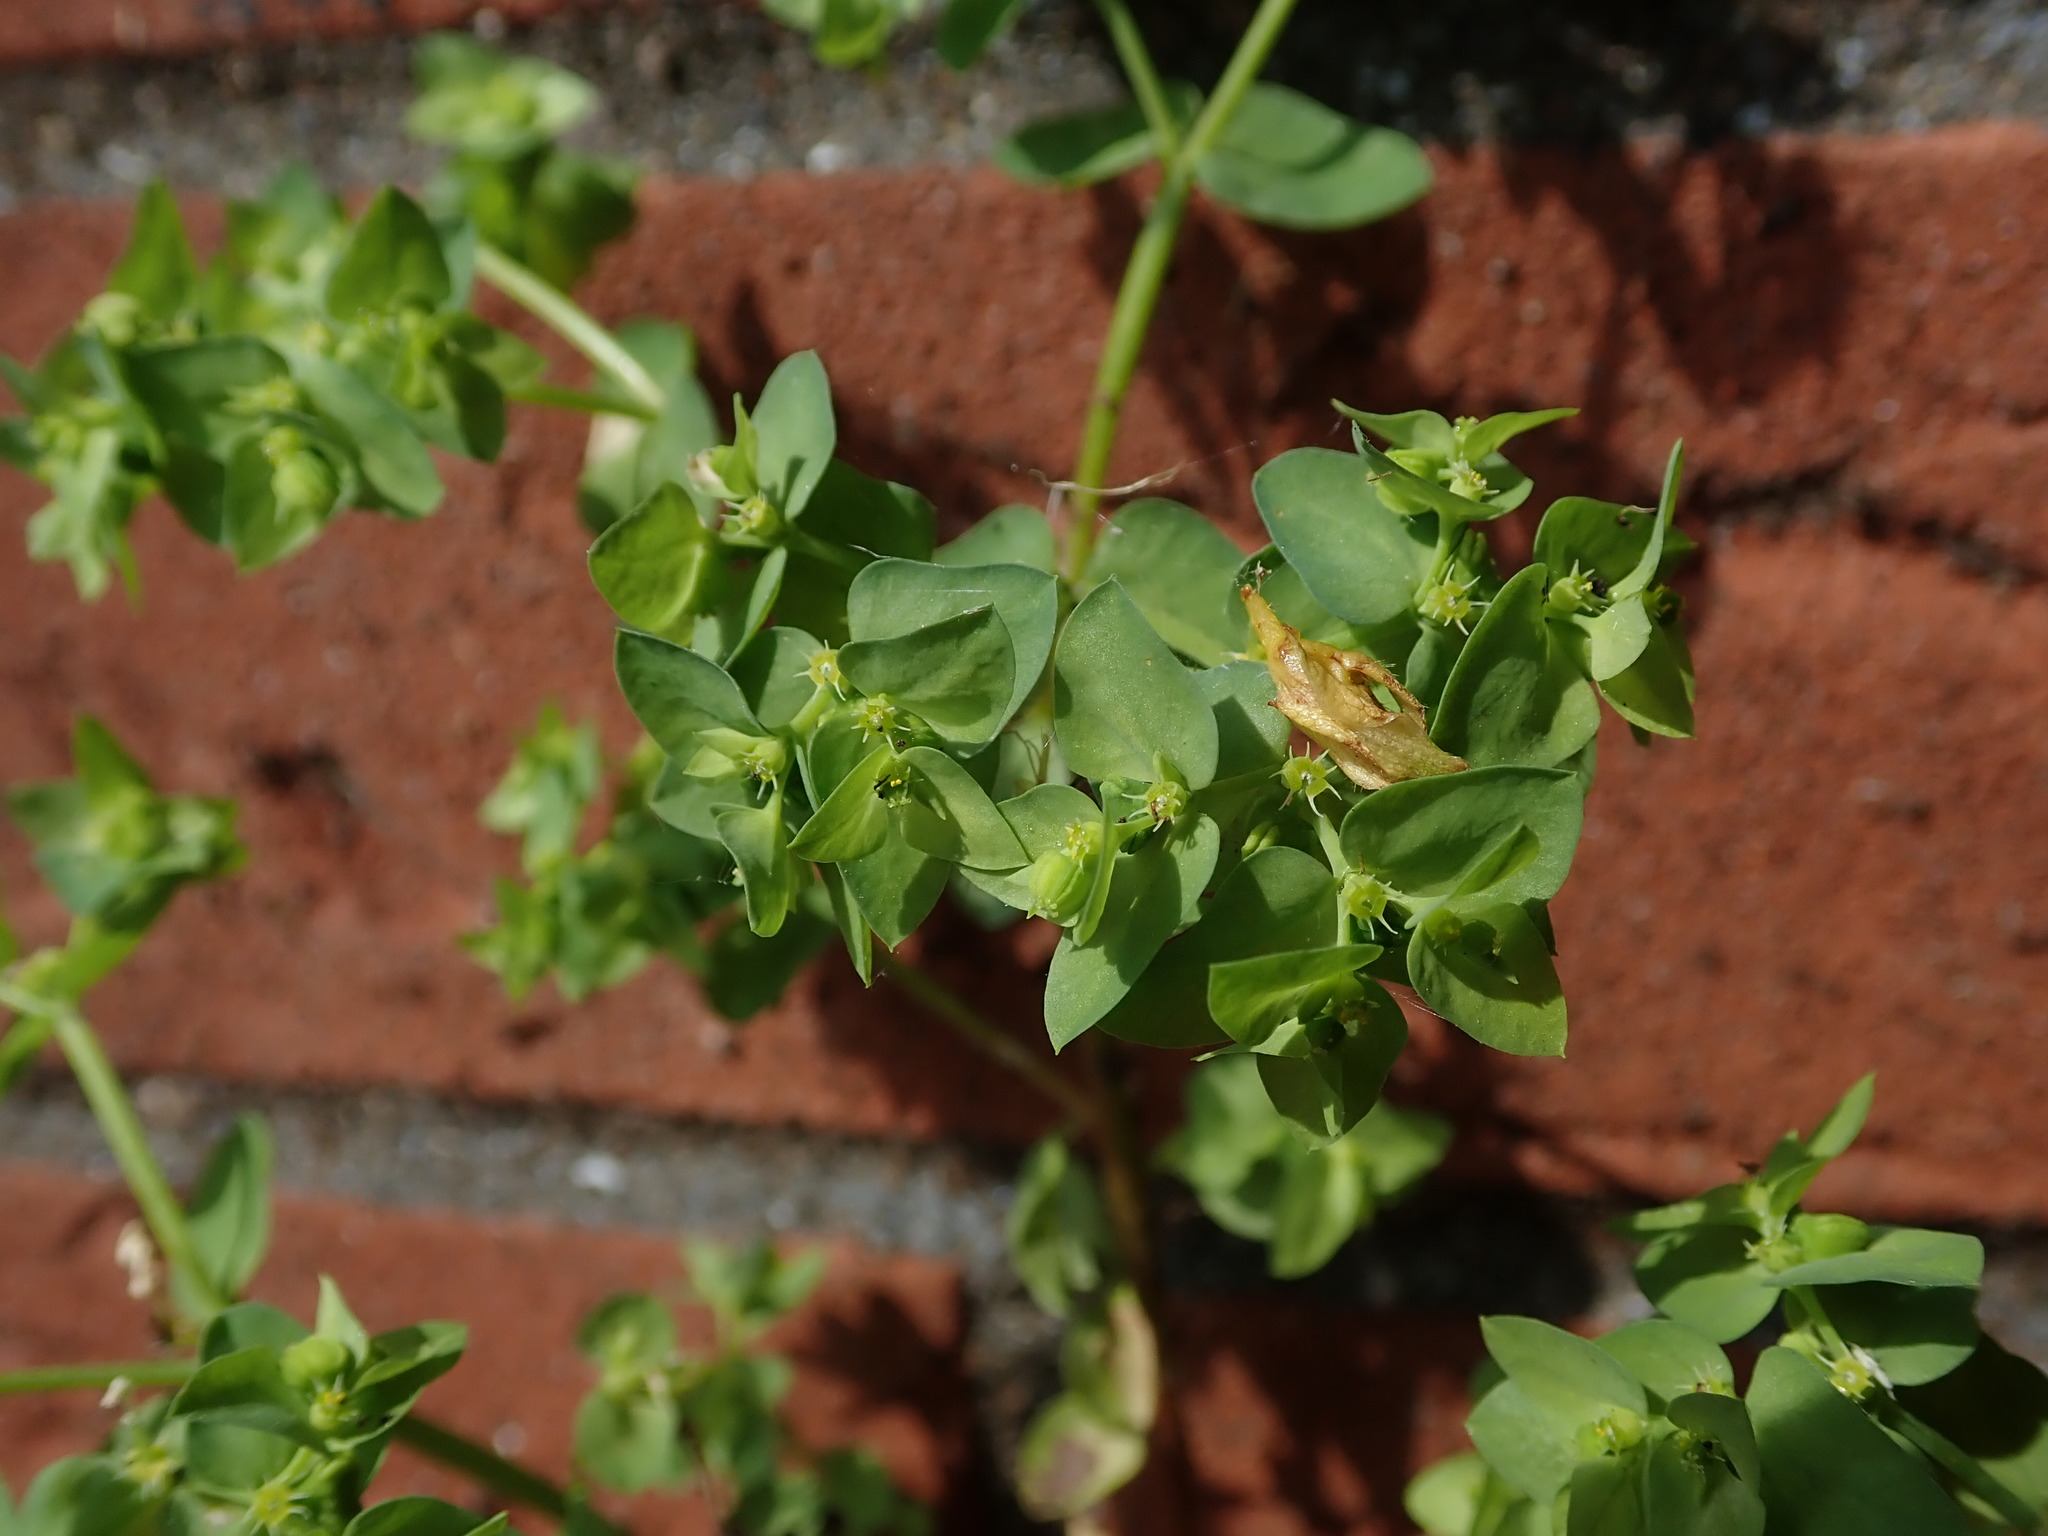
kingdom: Plantae
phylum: Tracheophyta
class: Magnoliopsida
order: Malpighiales
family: Euphorbiaceae
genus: Euphorbia
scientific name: Euphorbia peplus
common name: Petty spurge
